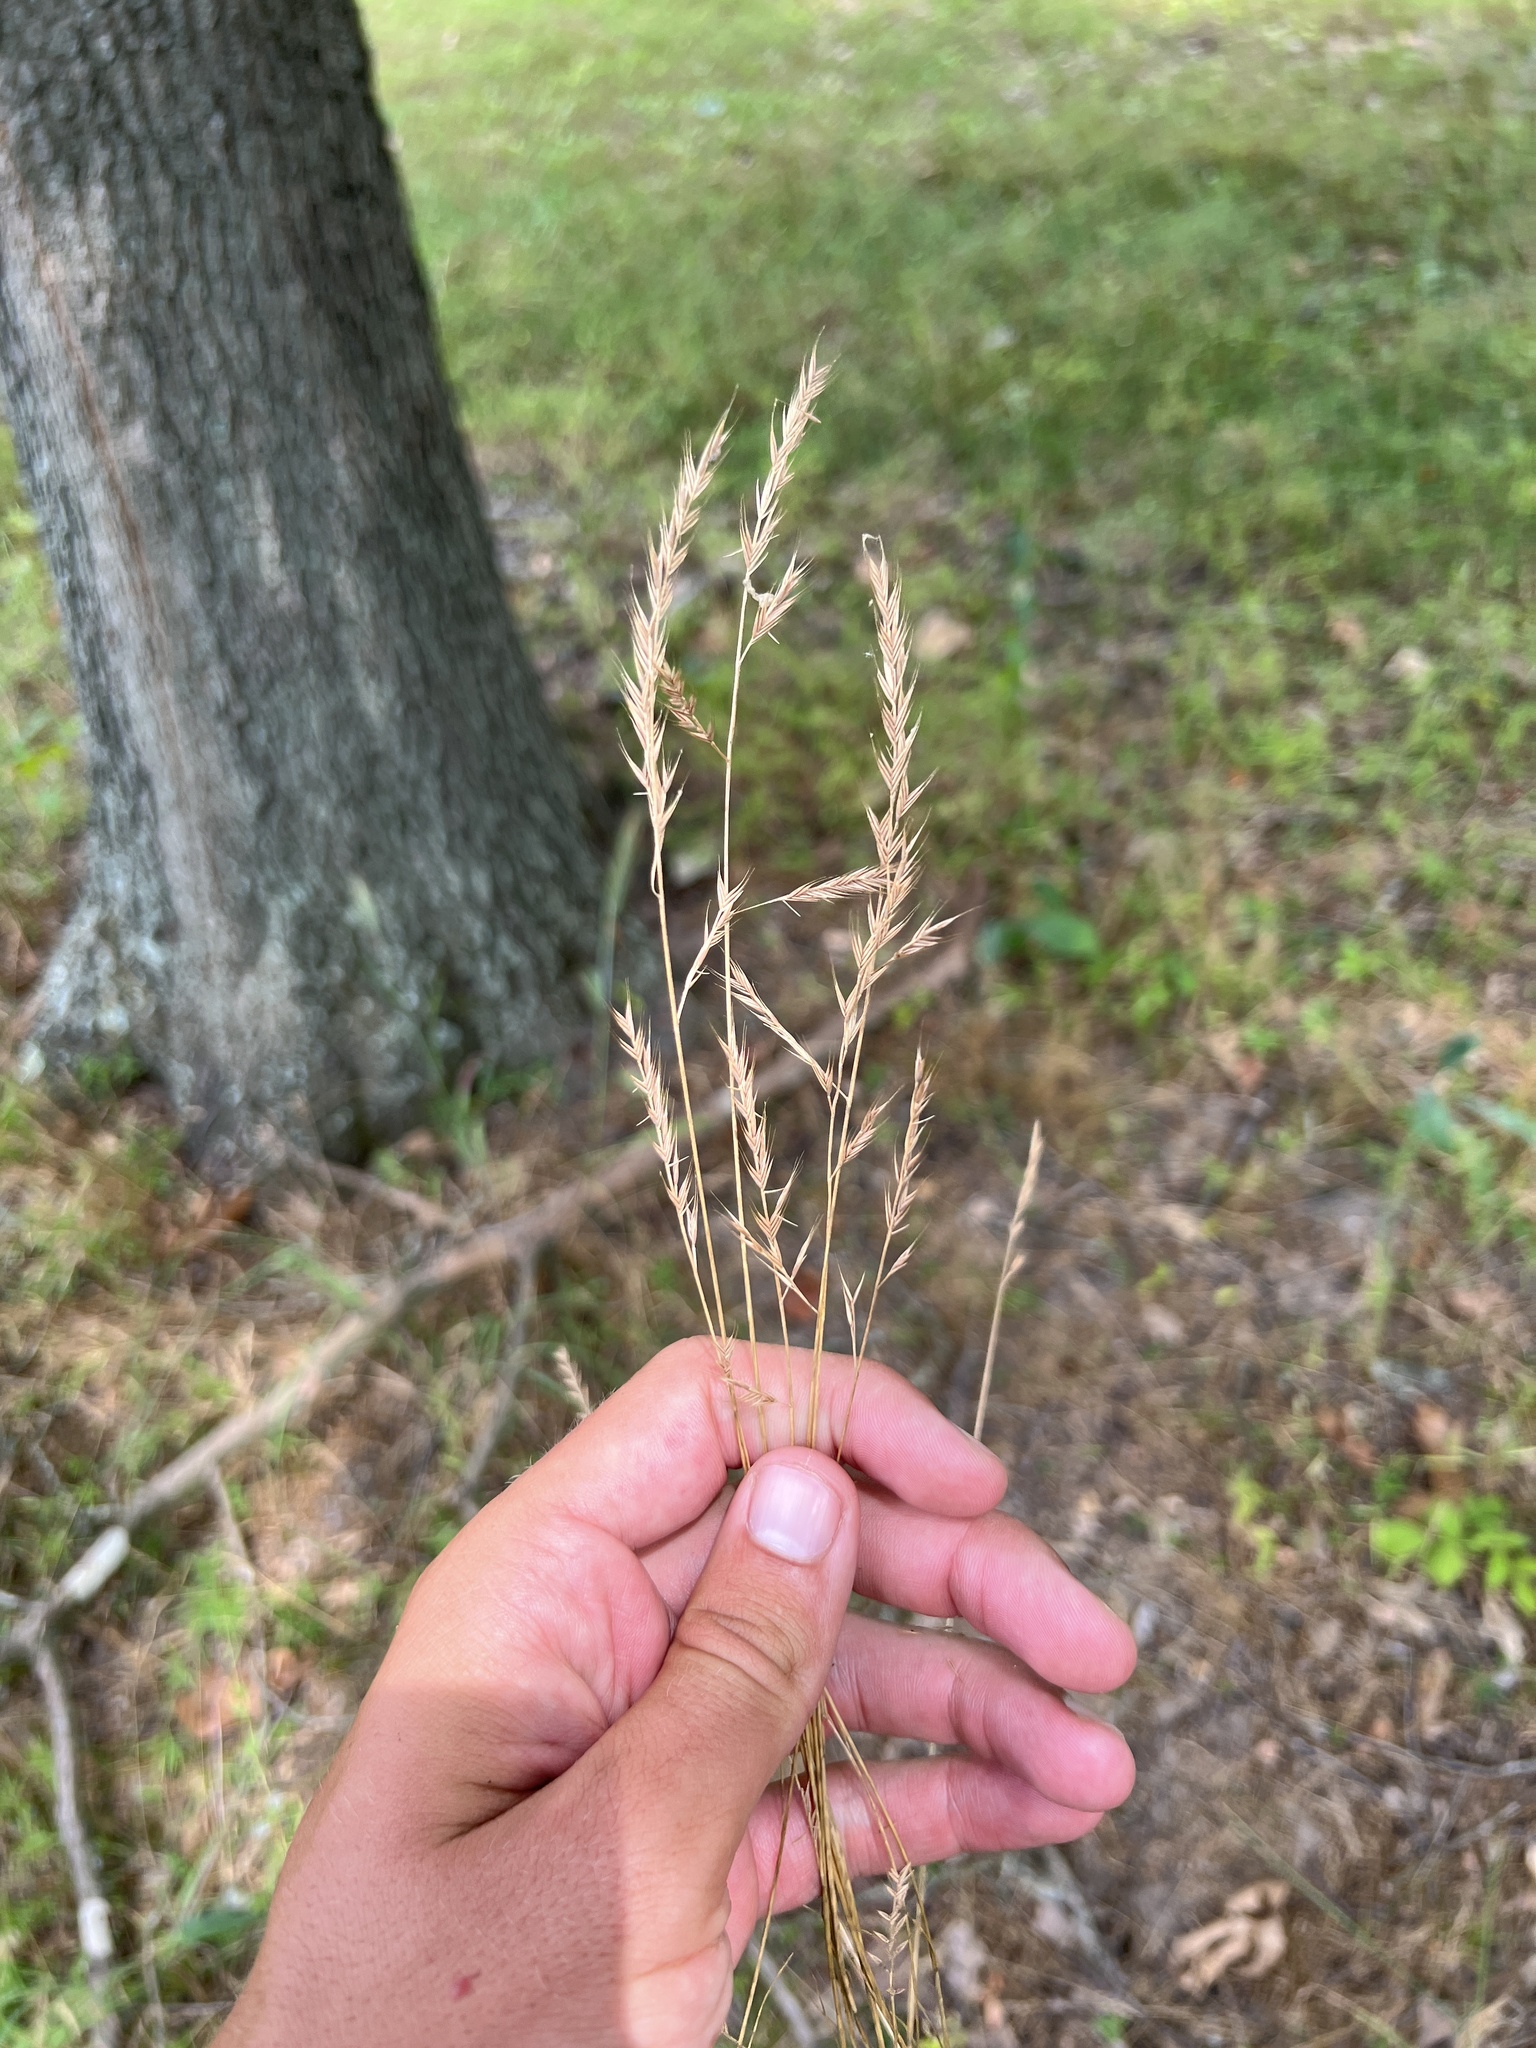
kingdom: Plantae
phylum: Tracheophyta
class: Liliopsida
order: Poales
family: Poaceae
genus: Festuca
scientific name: Festuca octoflora
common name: Sixweeks grass
